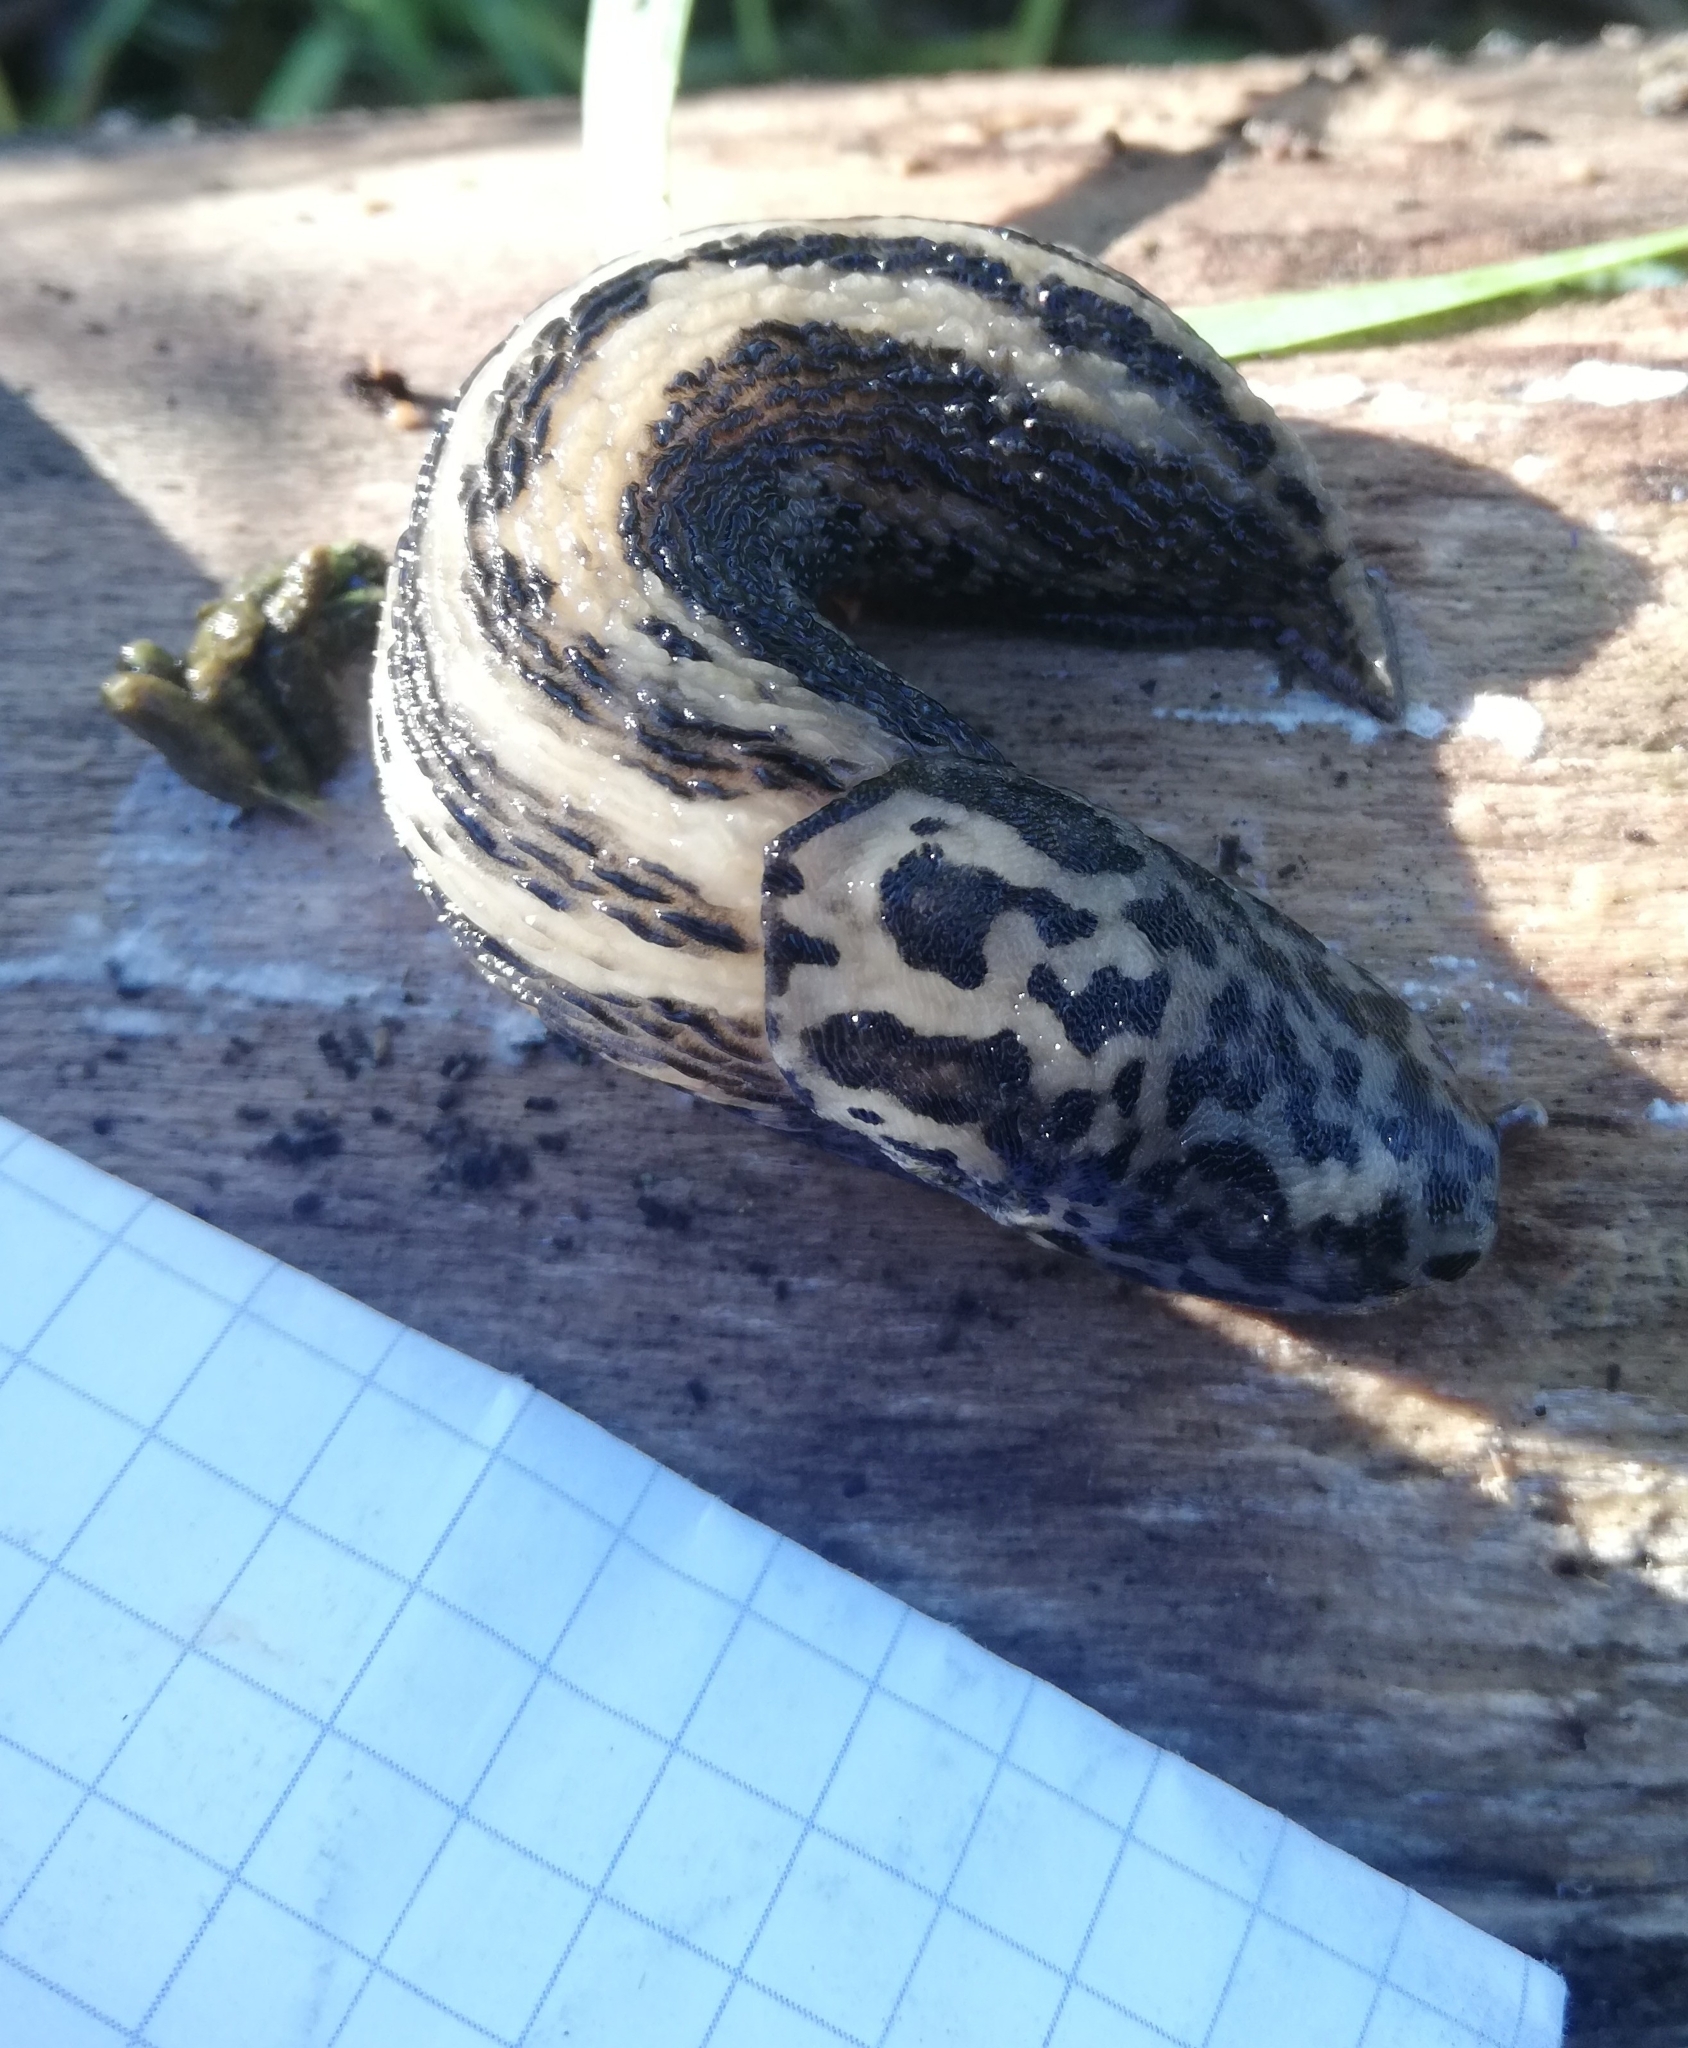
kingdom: Animalia
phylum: Mollusca
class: Gastropoda
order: Stylommatophora
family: Limacidae
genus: Limax
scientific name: Limax maximus
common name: Great grey slug
